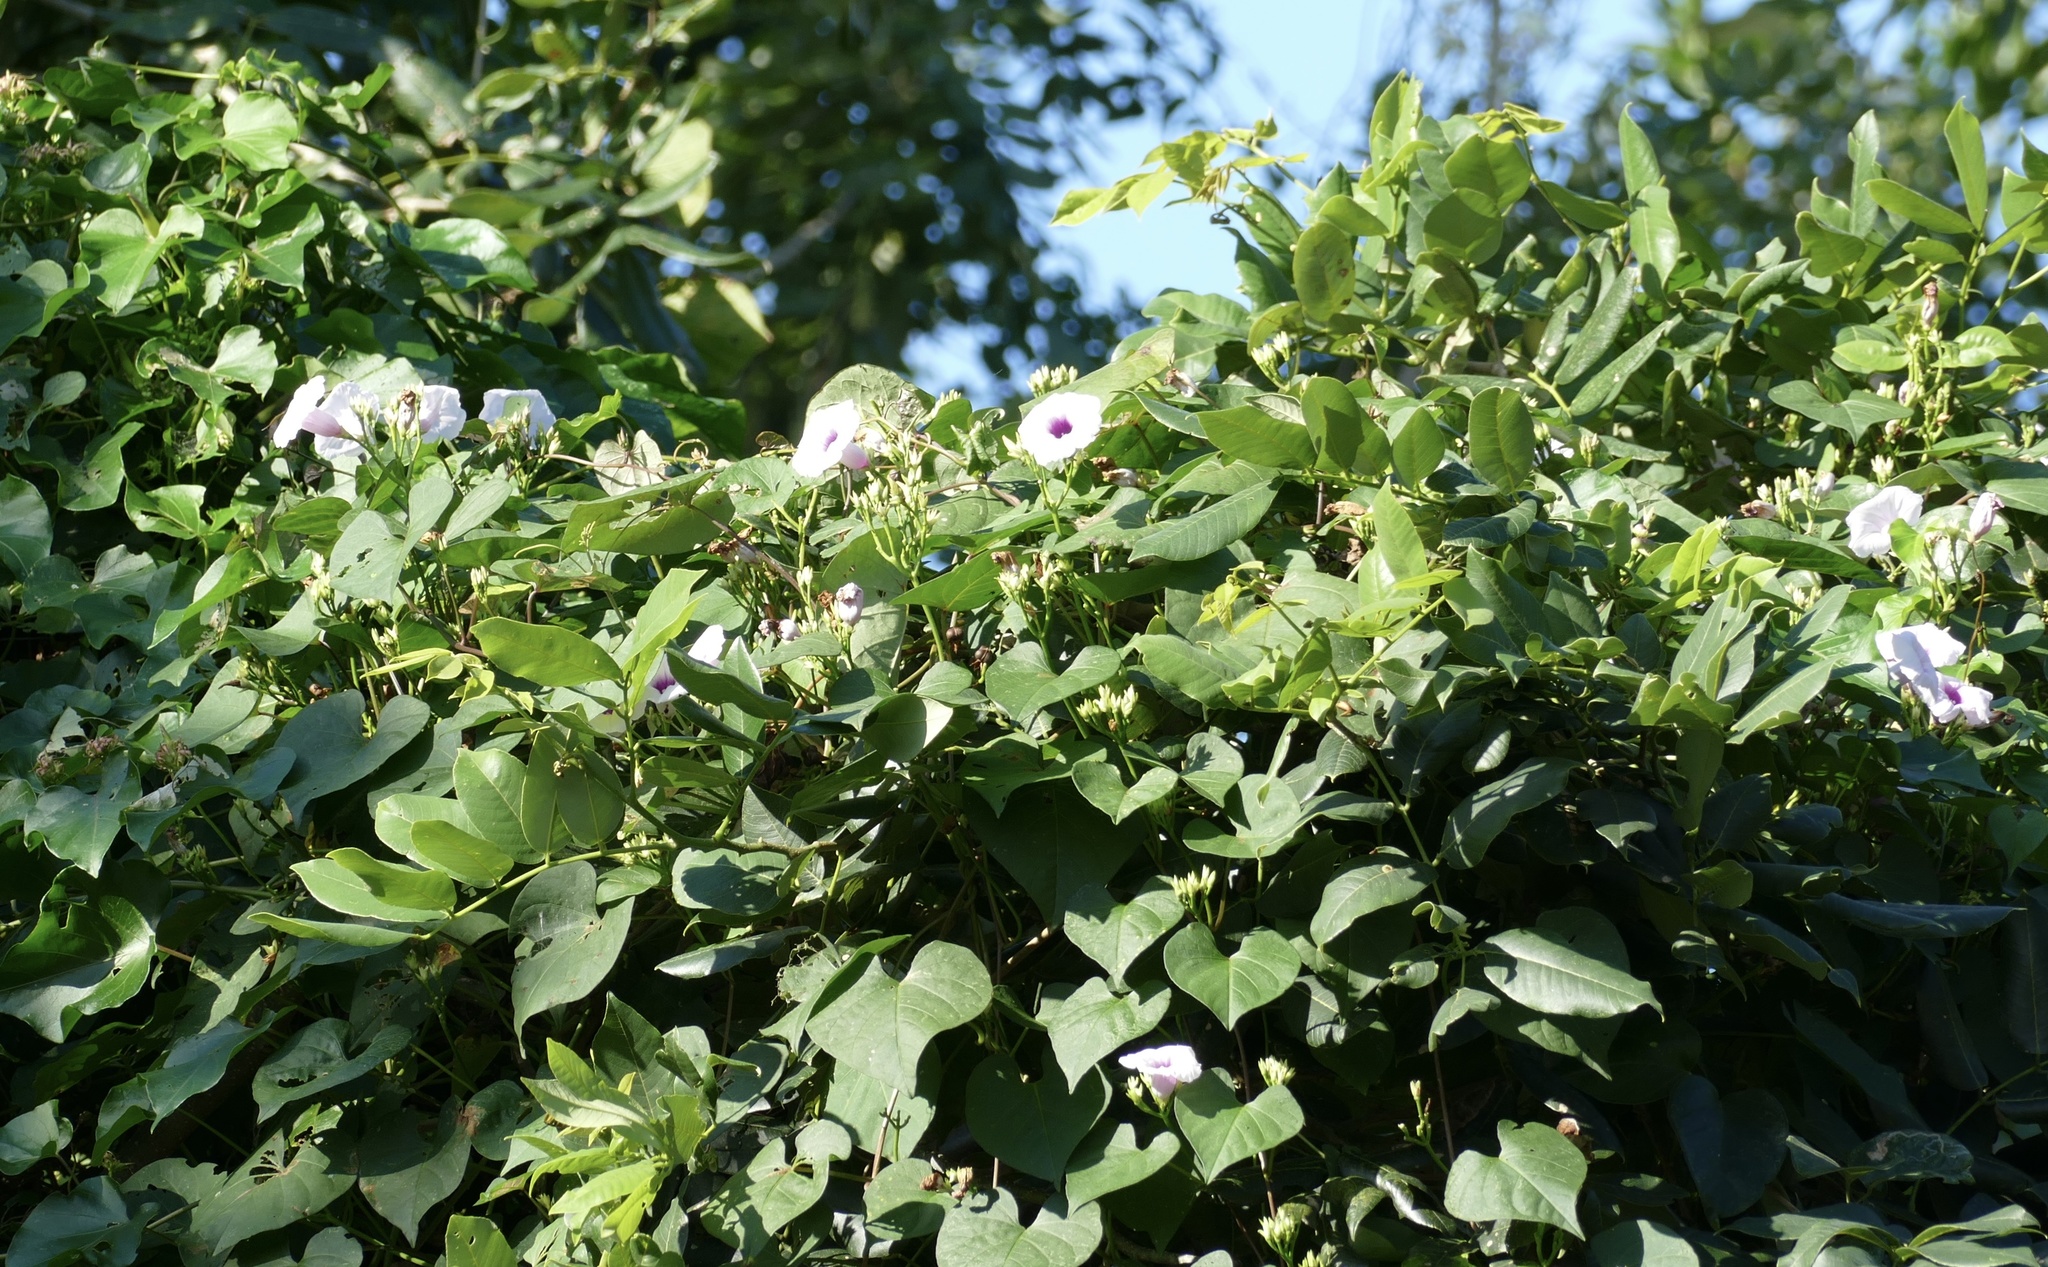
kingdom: Plantae
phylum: Tracheophyta
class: Magnoliopsida
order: Solanales
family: Convolvulaceae
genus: Ipomoea
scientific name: Ipomoea tiliacea
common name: Wild potato vine
